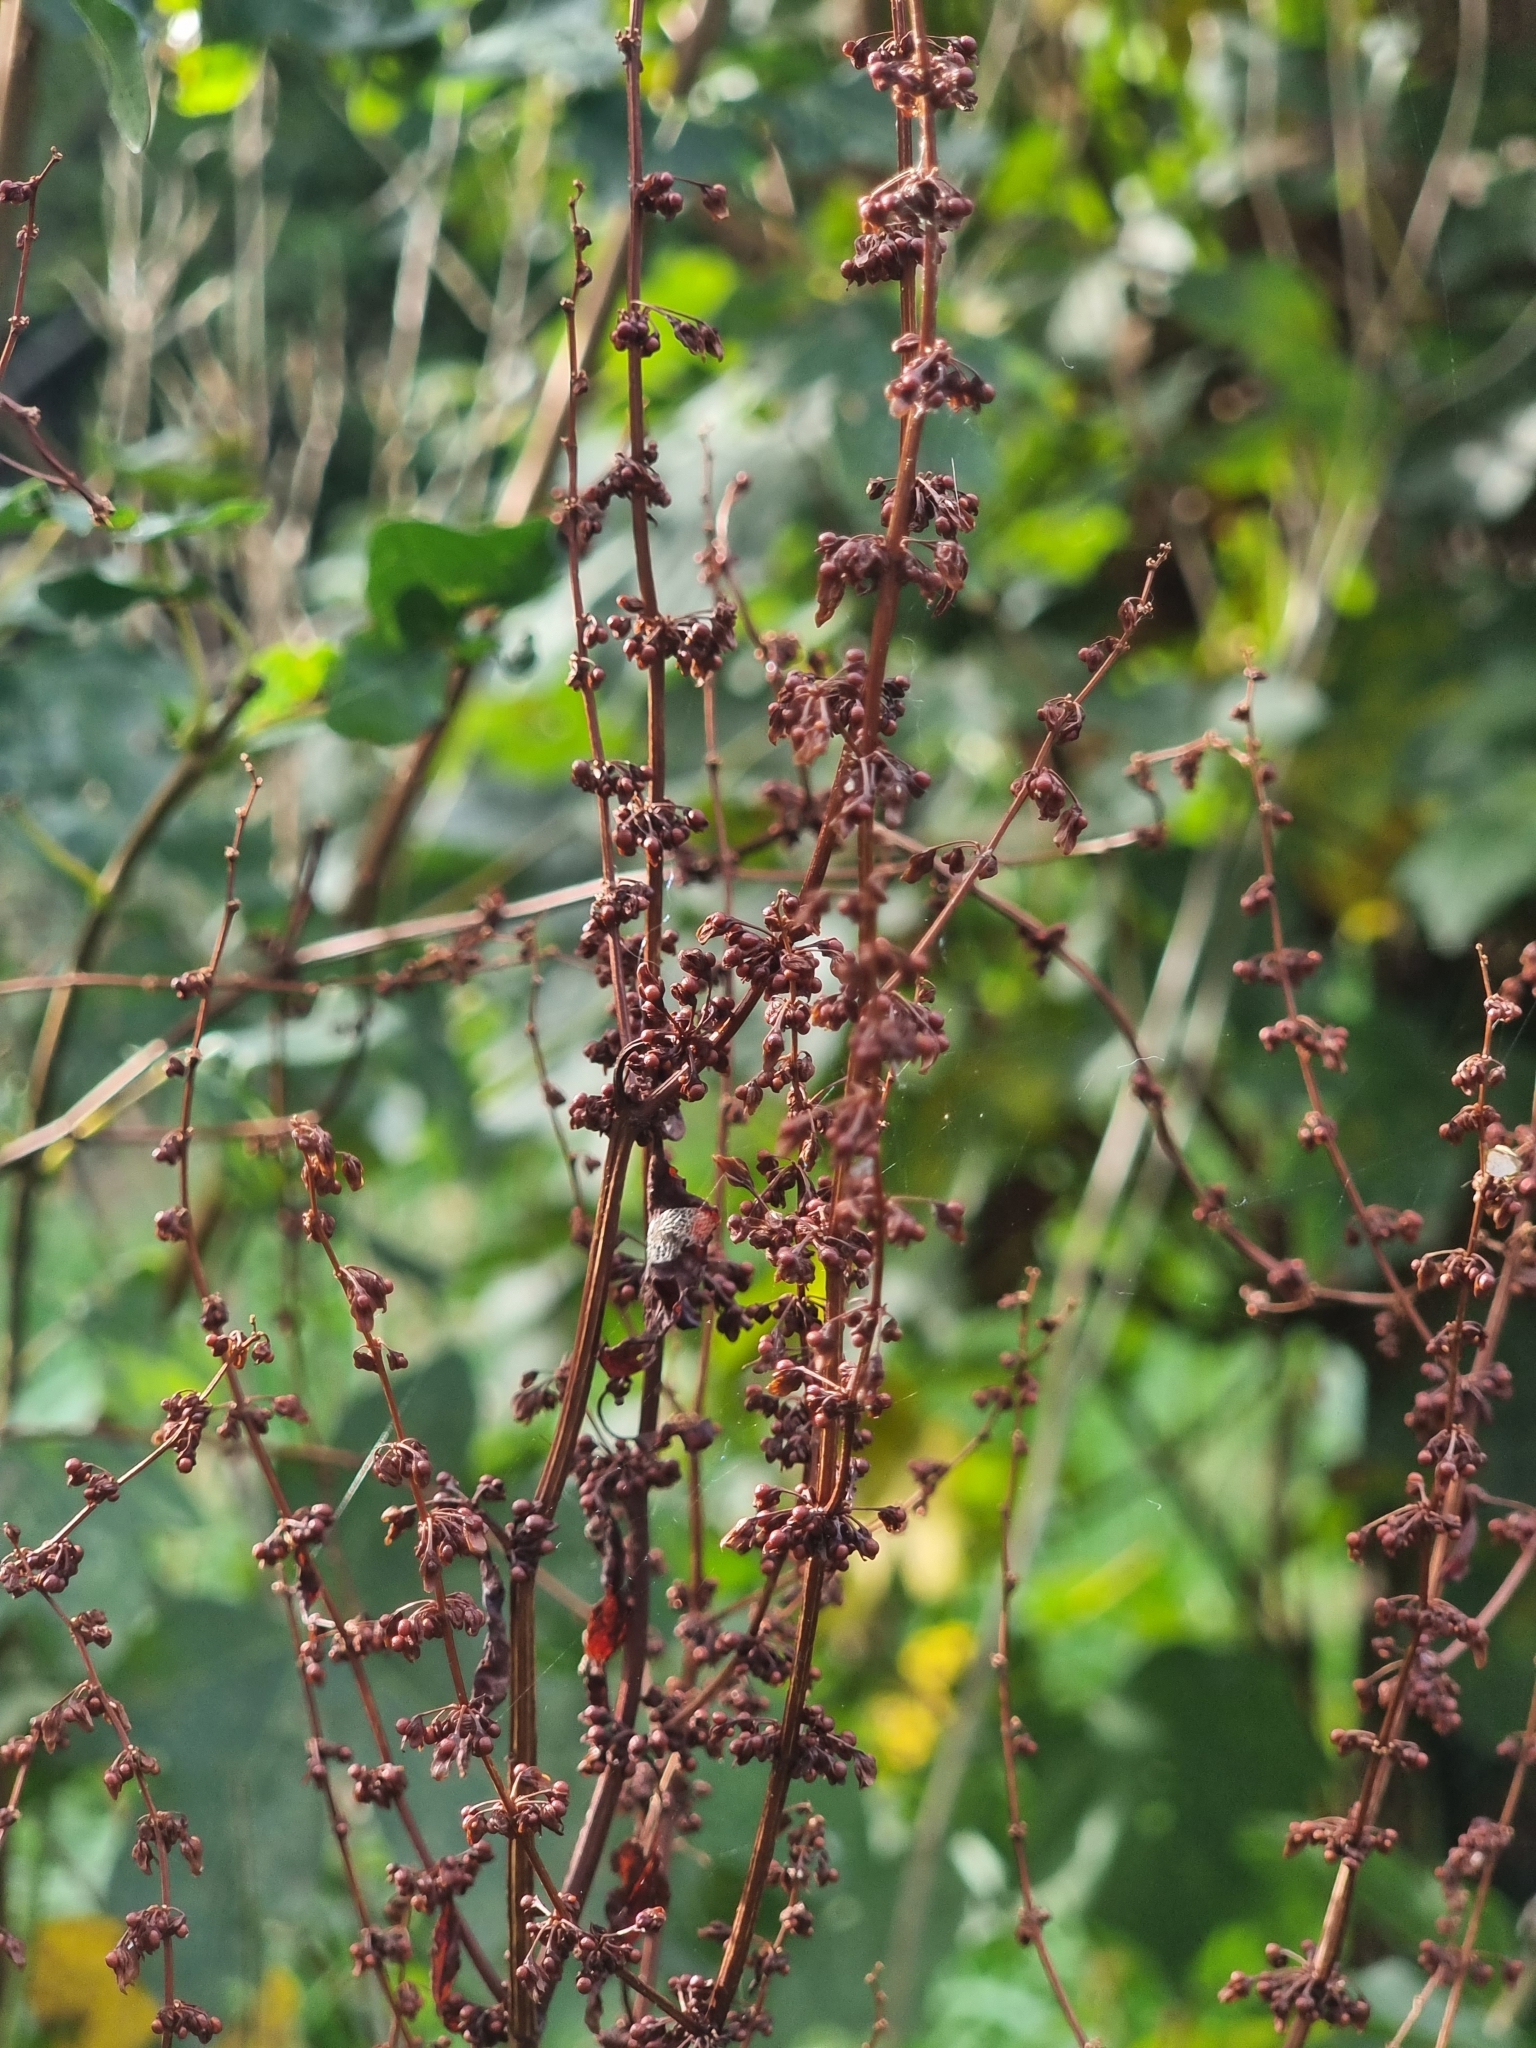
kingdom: Plantae
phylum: Tracheophyta
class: Magnoliopsida
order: Caryophyllales
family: Polygonaceae
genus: Rumex
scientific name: Rumex sanguineus
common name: Wood dock
